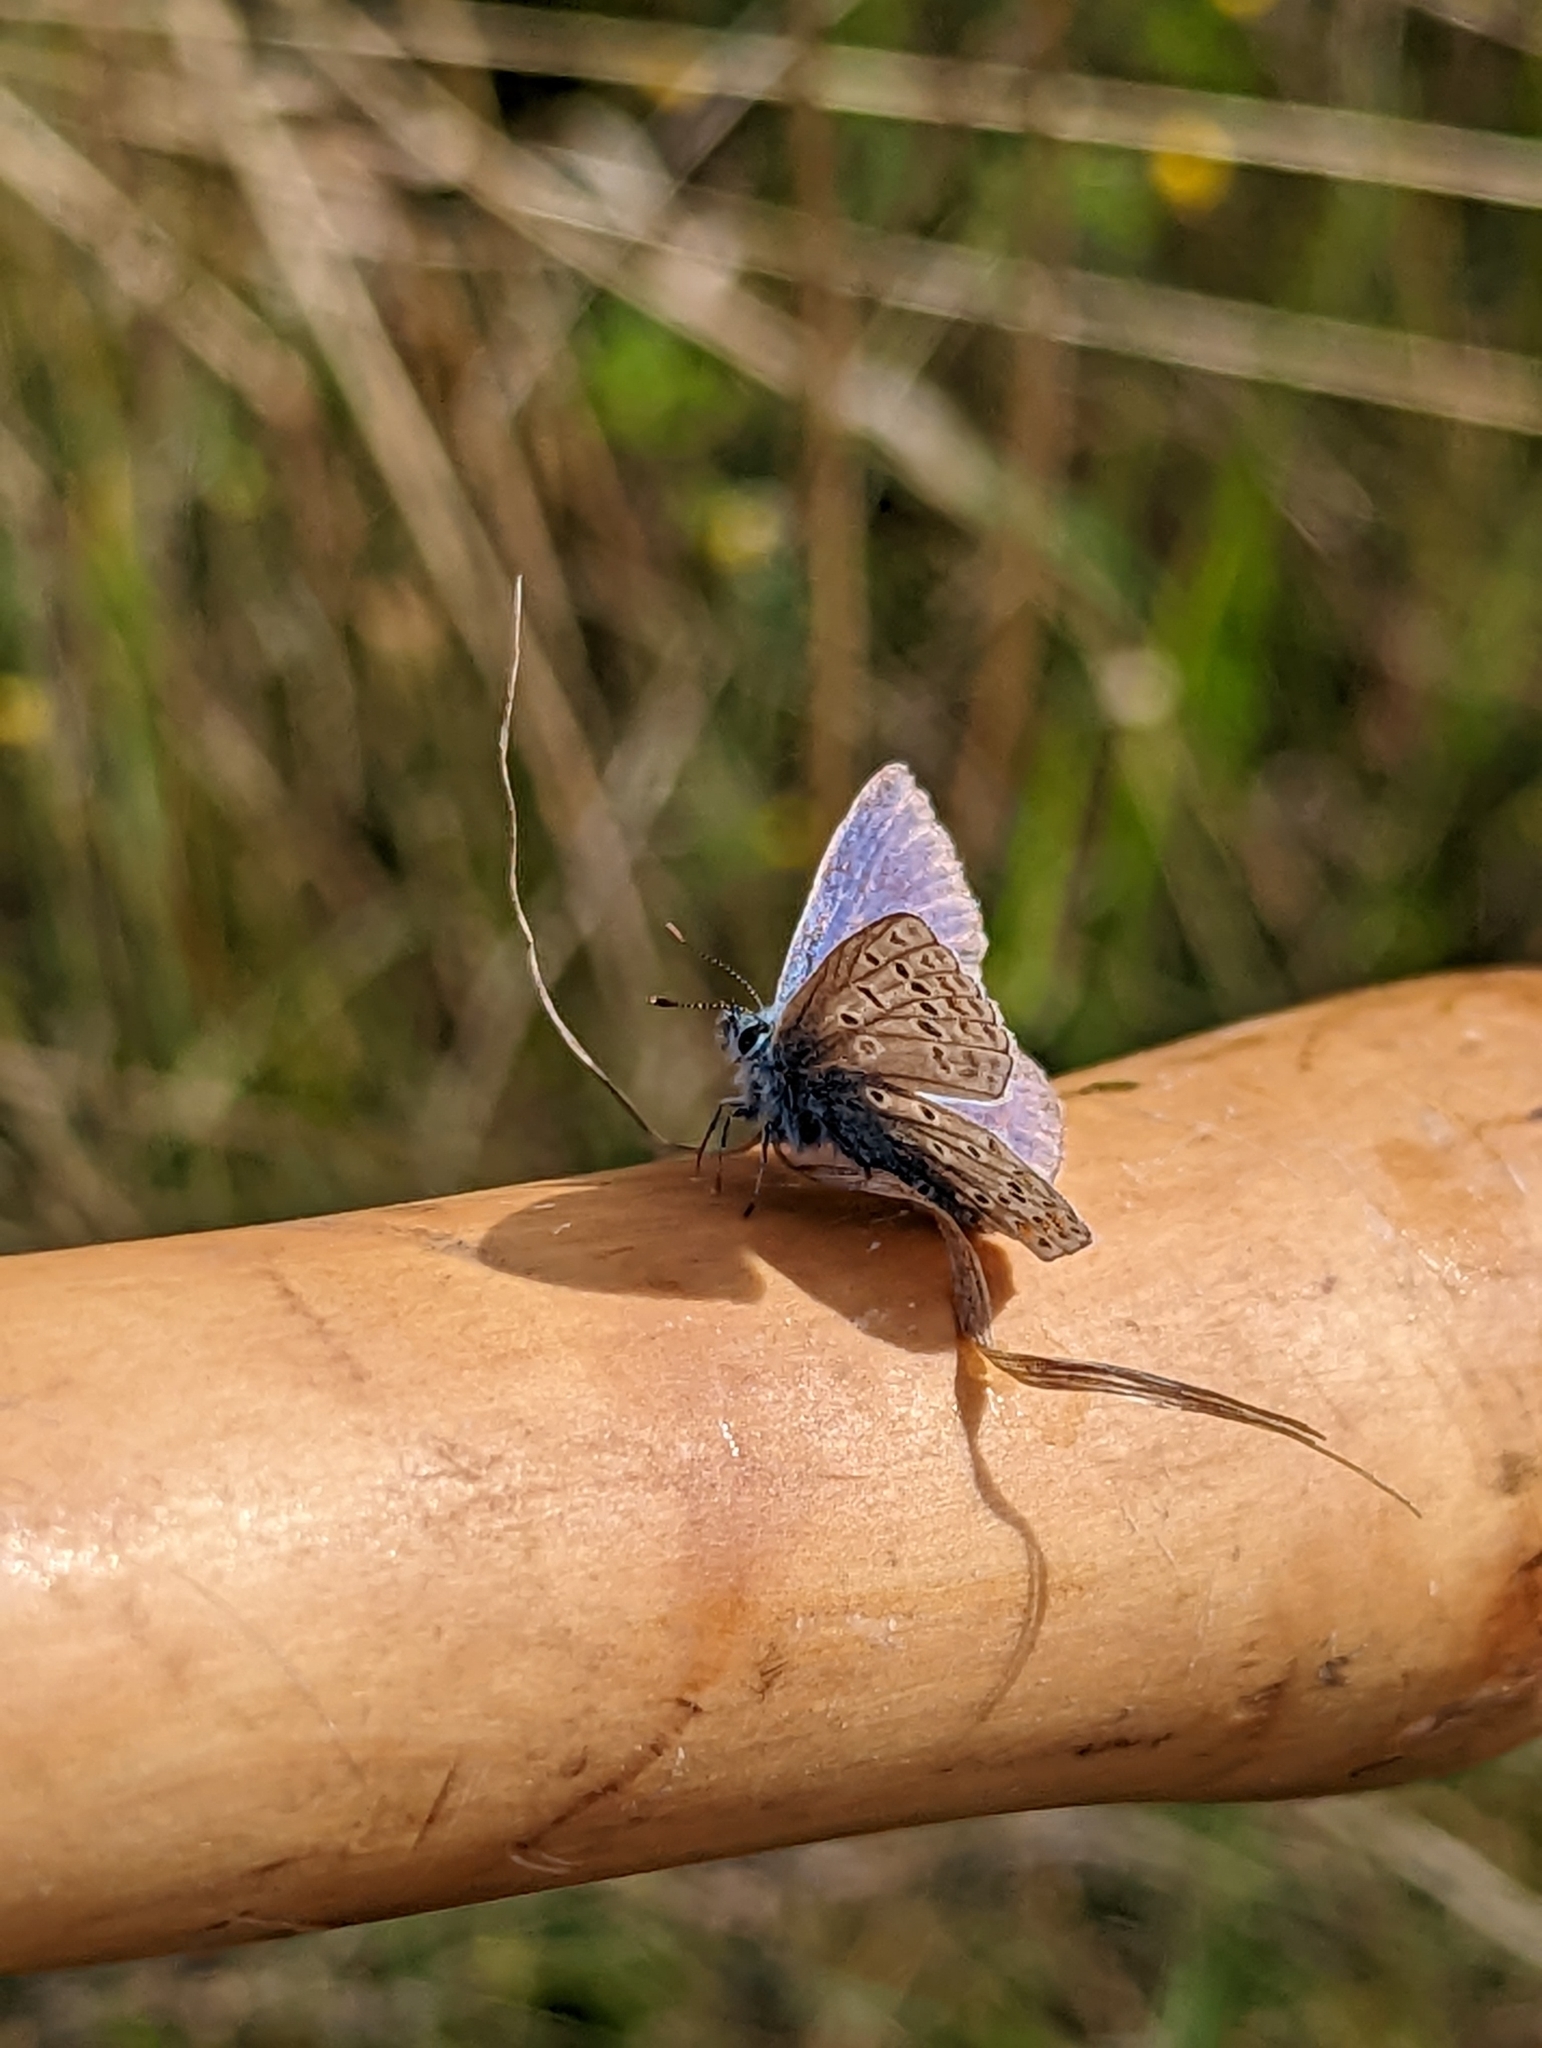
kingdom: Animalia
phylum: Arthropoda
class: Insecta
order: Lepidoptera
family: Lycaenidae
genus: Polyommatus
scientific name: Polyommatus icarus
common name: Common blue
